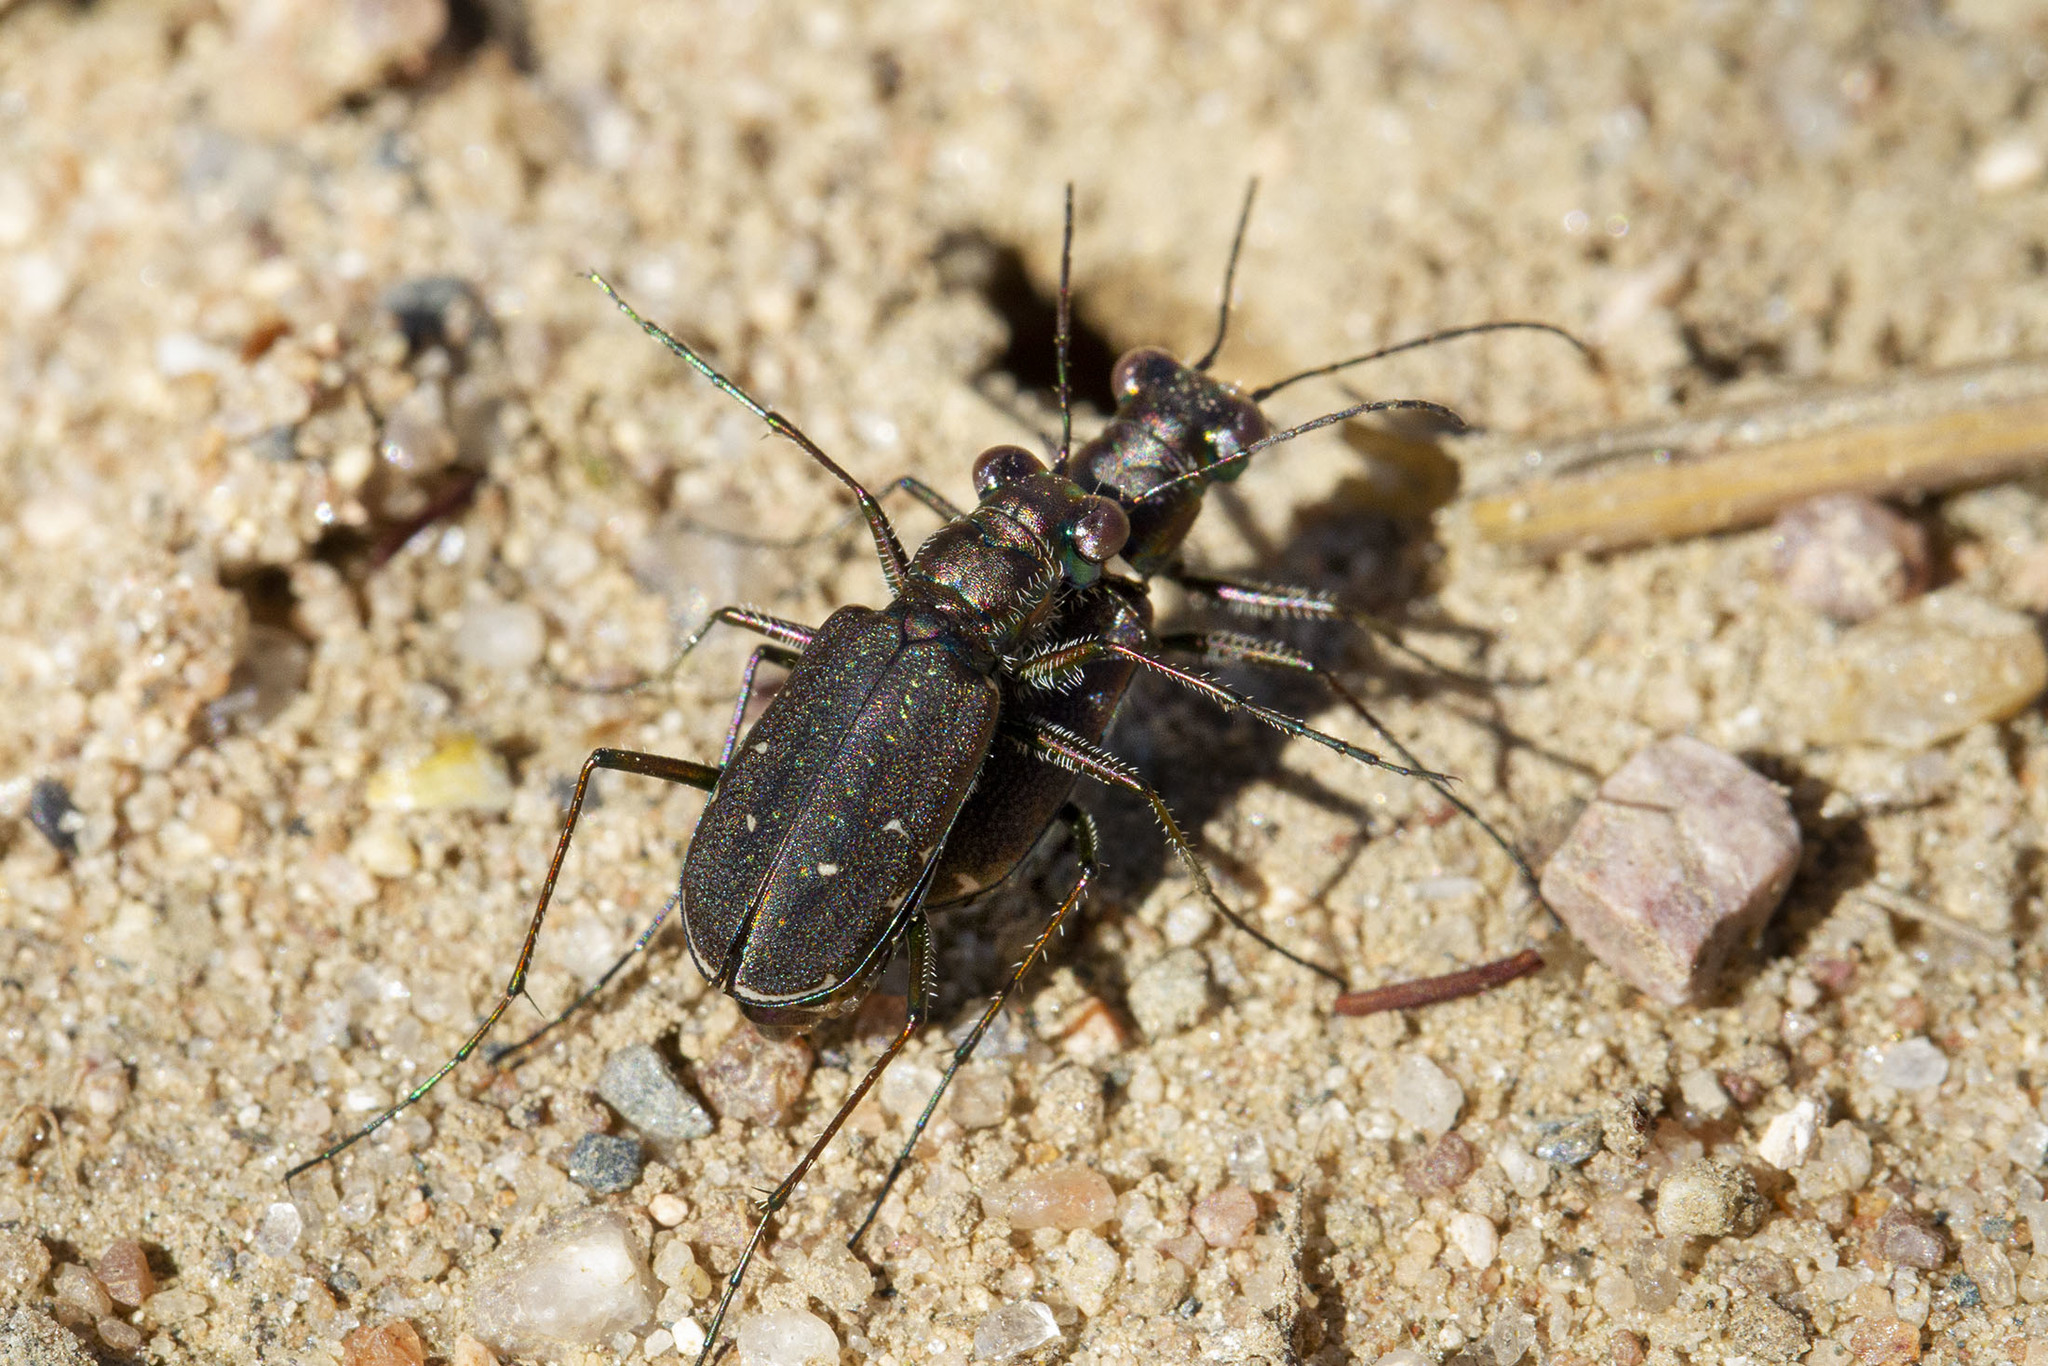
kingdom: Animalia
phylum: Arthropoda
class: Insecta
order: Coleoptera
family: Carabidae
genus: Cicindela
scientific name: Cicindela punctulata
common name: Punctured tiger beetle
